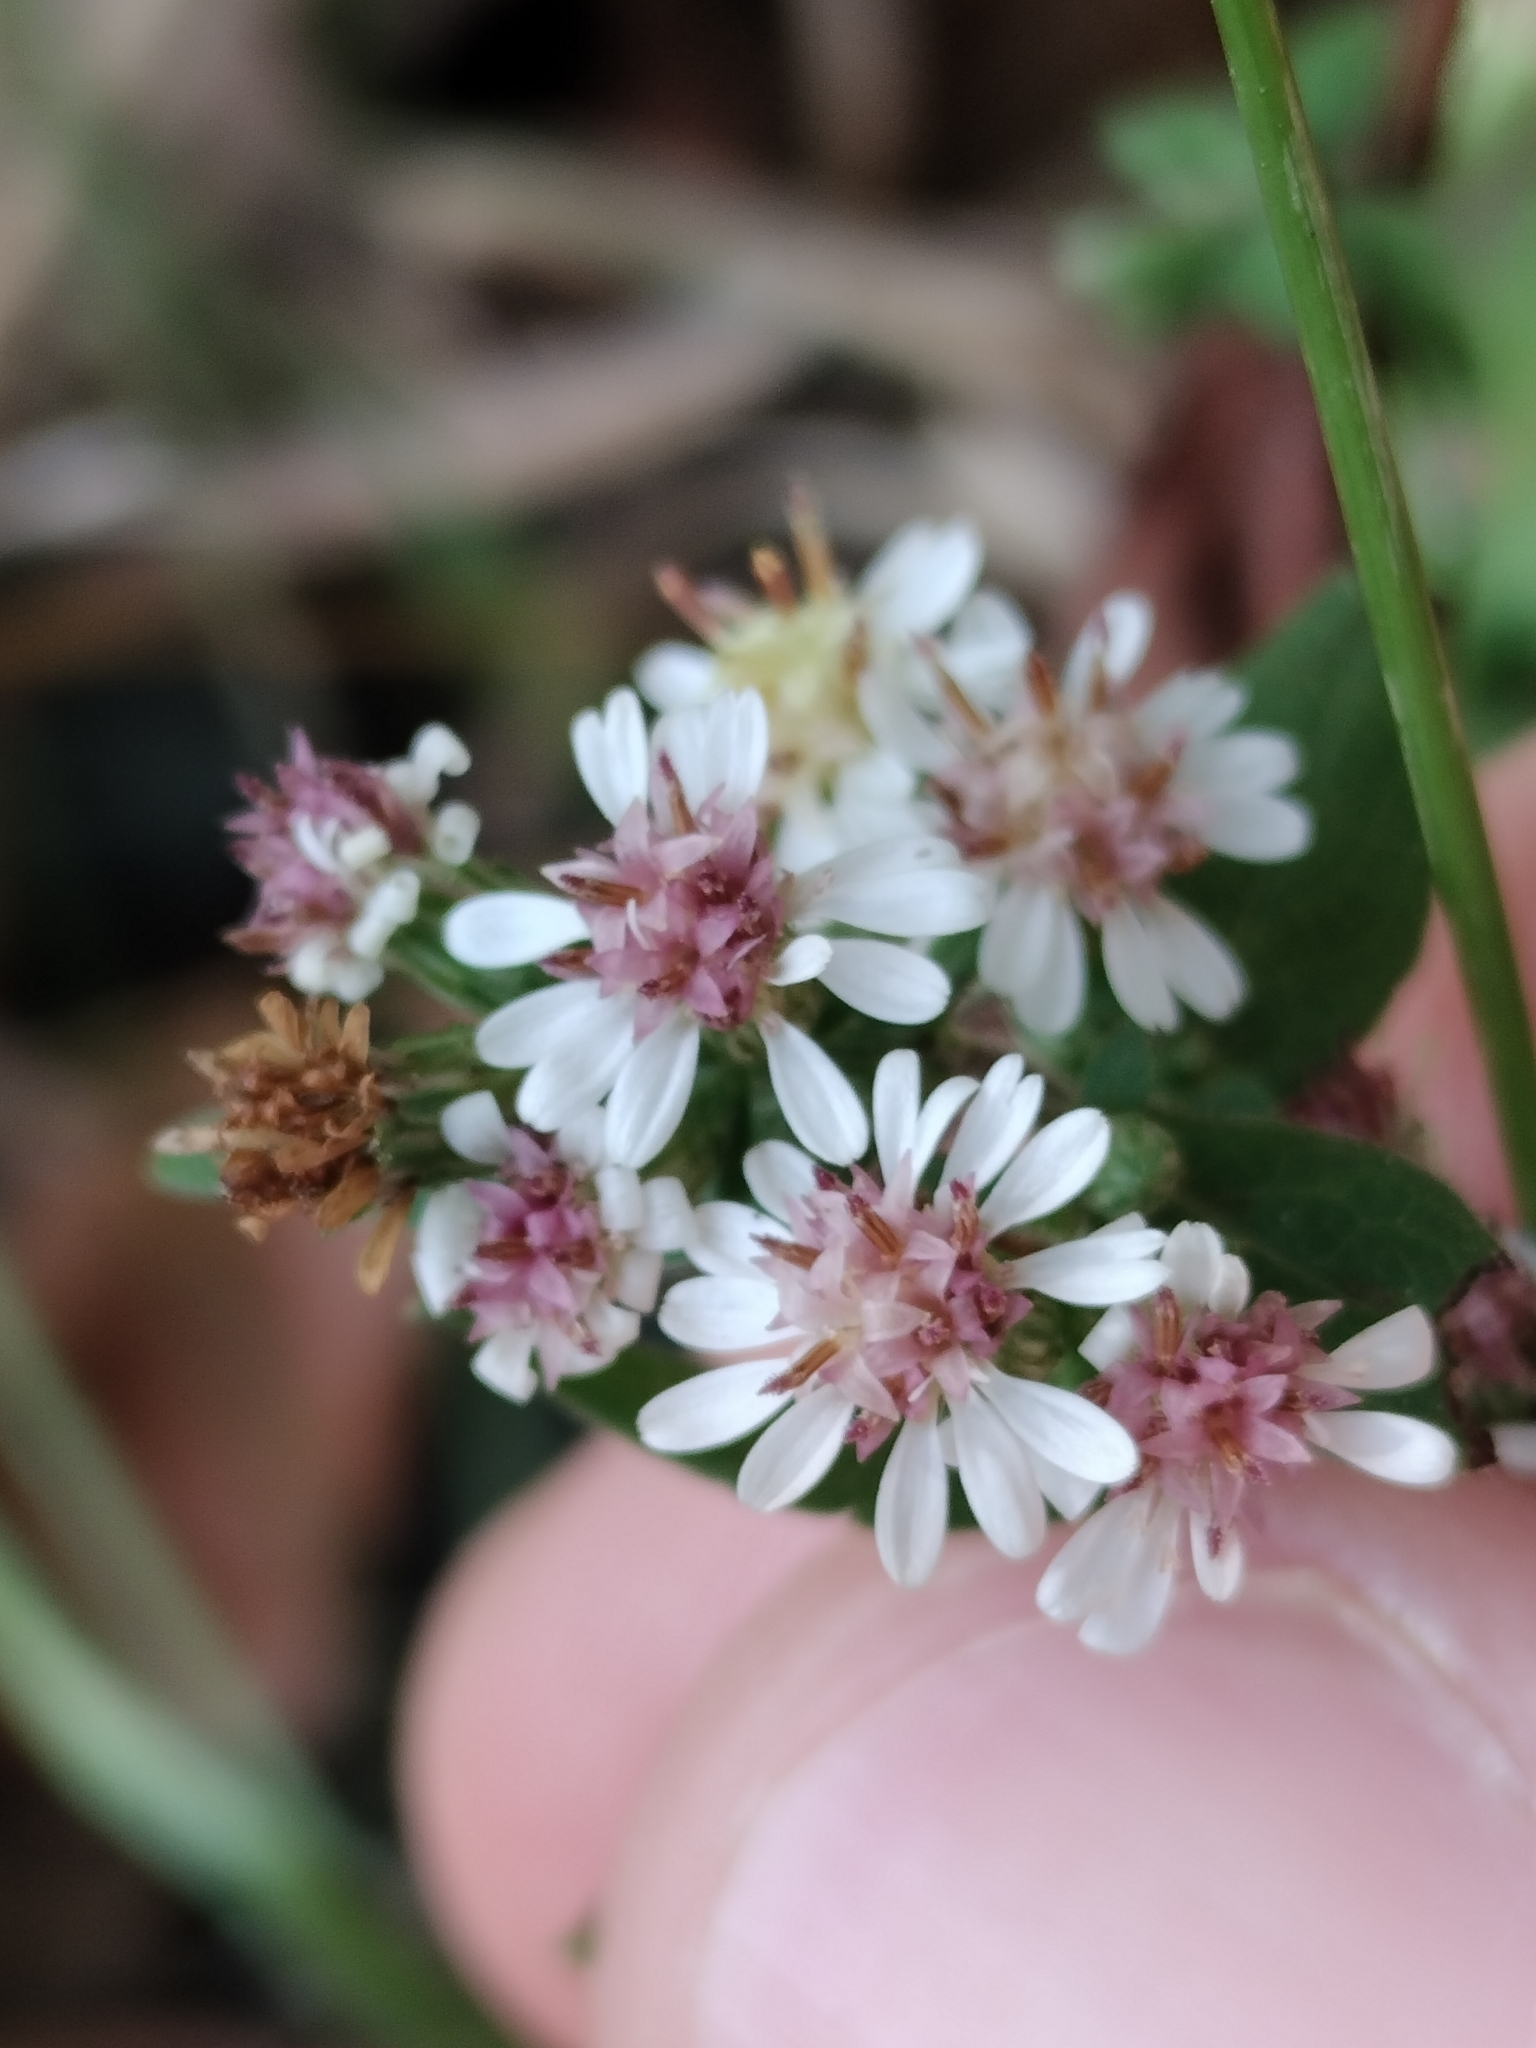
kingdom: Plantae
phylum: Tracheophyta
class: Magnoliopsida
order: Asterales
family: Asteraceae
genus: Symphyotrichum
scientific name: Symphyotrichum lateriflorum
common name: Calico aster
